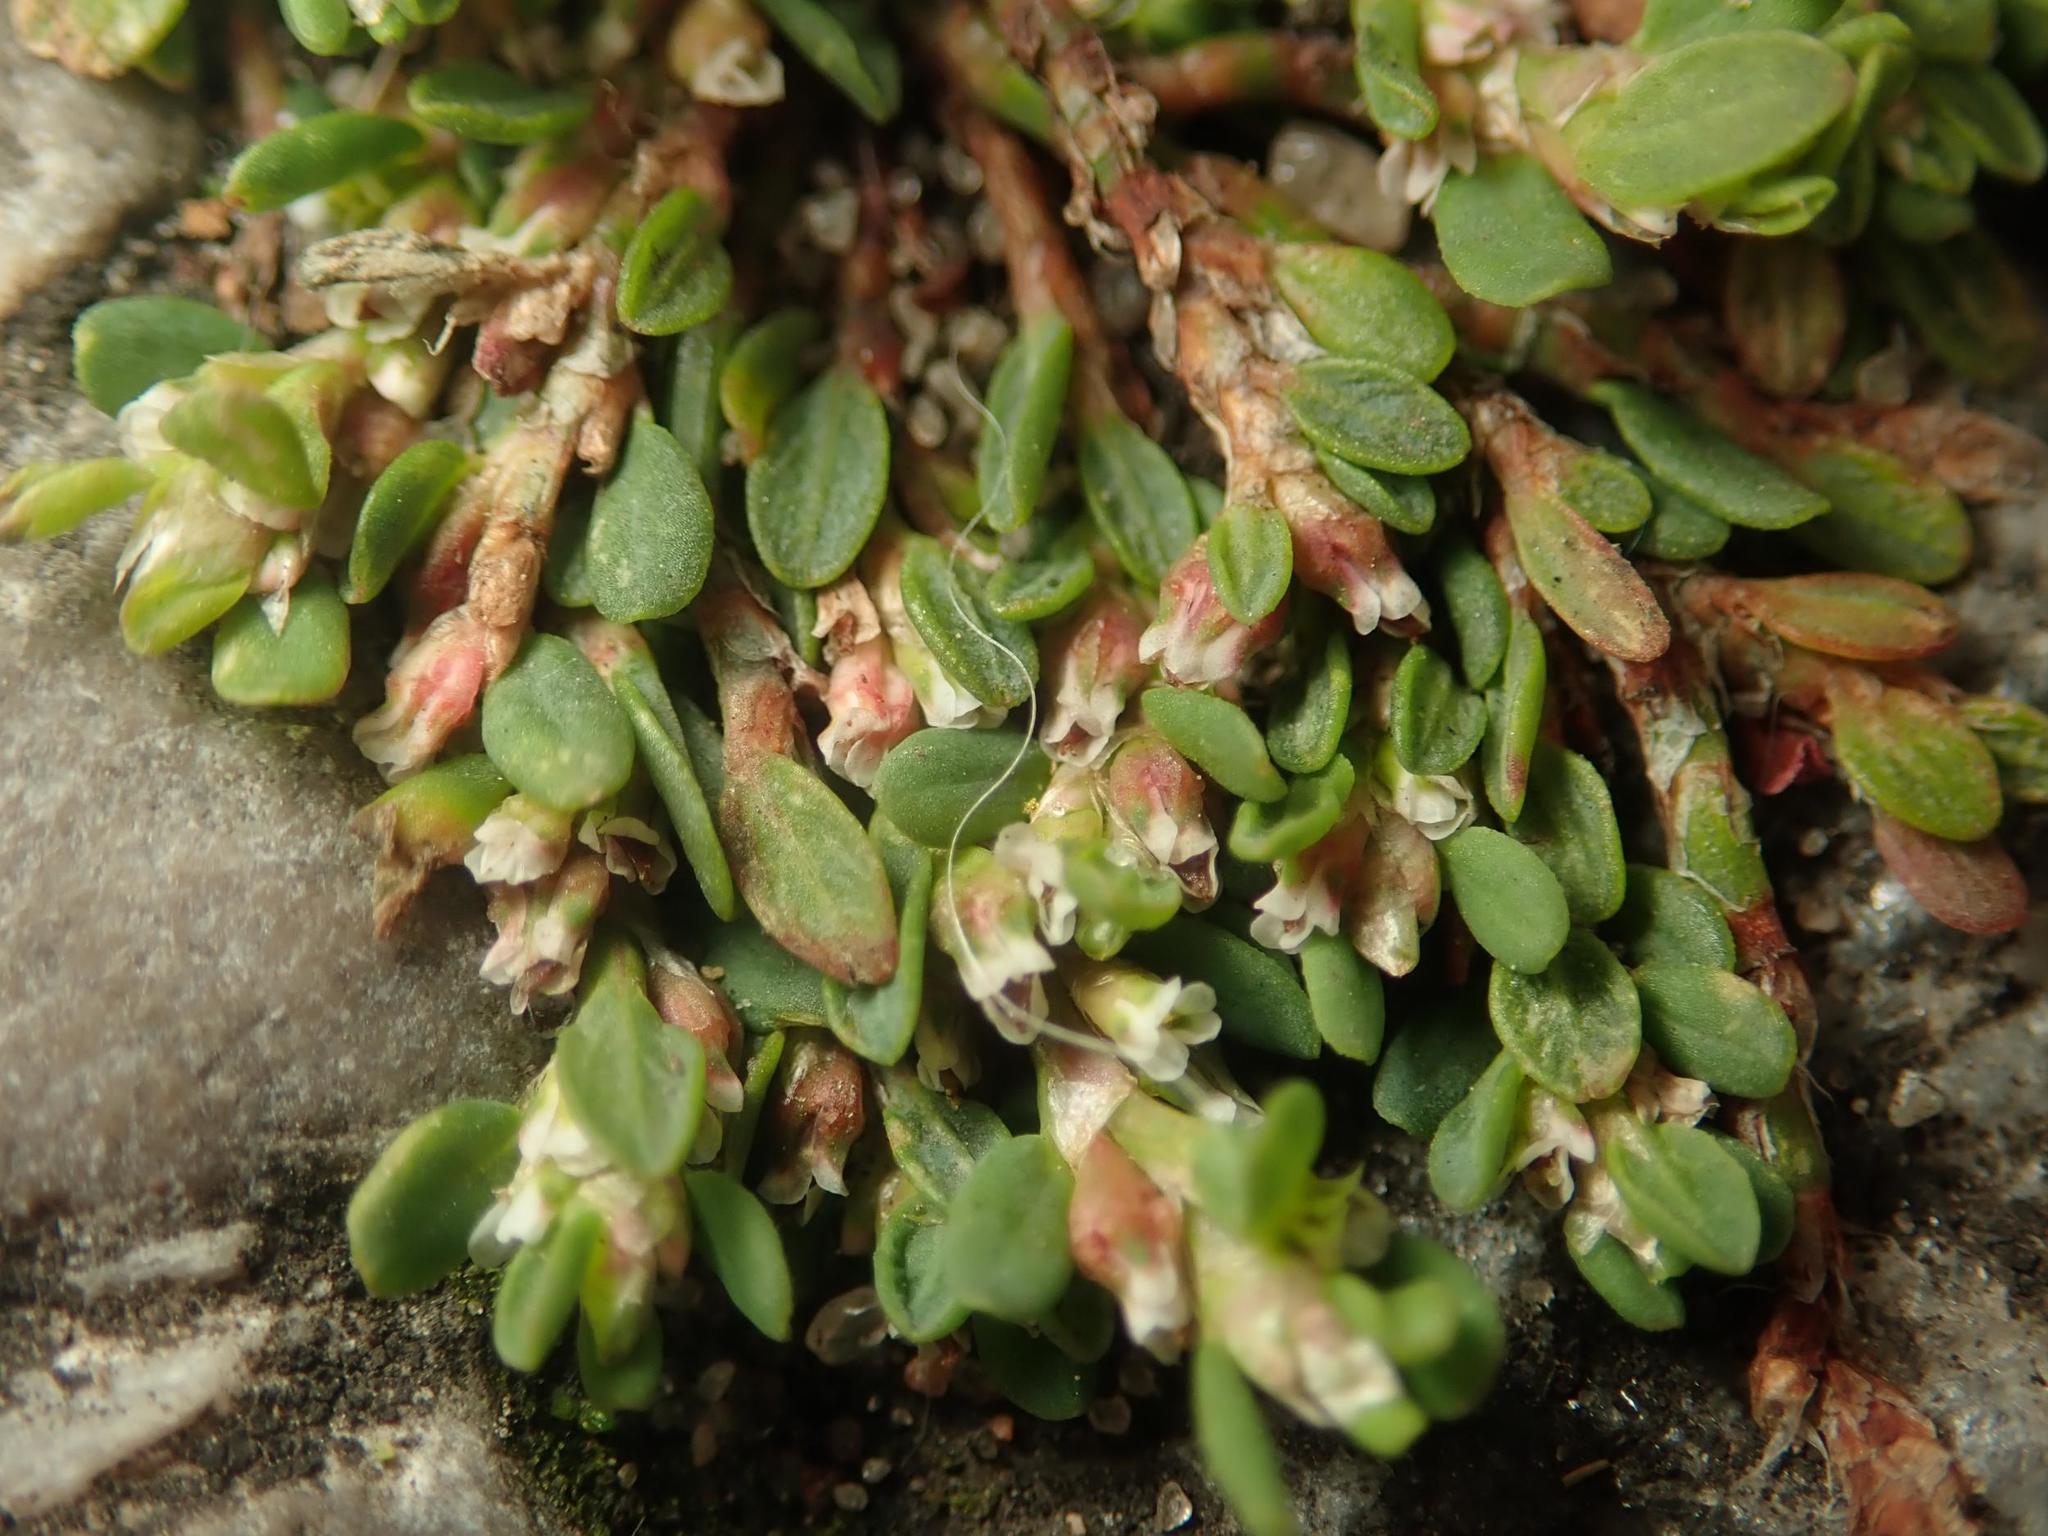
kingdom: Plantae
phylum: Tracheophyta
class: Magnoliopsida
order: Caryophyllales
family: Polygonaceae
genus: Polygonum
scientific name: Polygonum arenastrum
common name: Equal-leaved knotgrass
